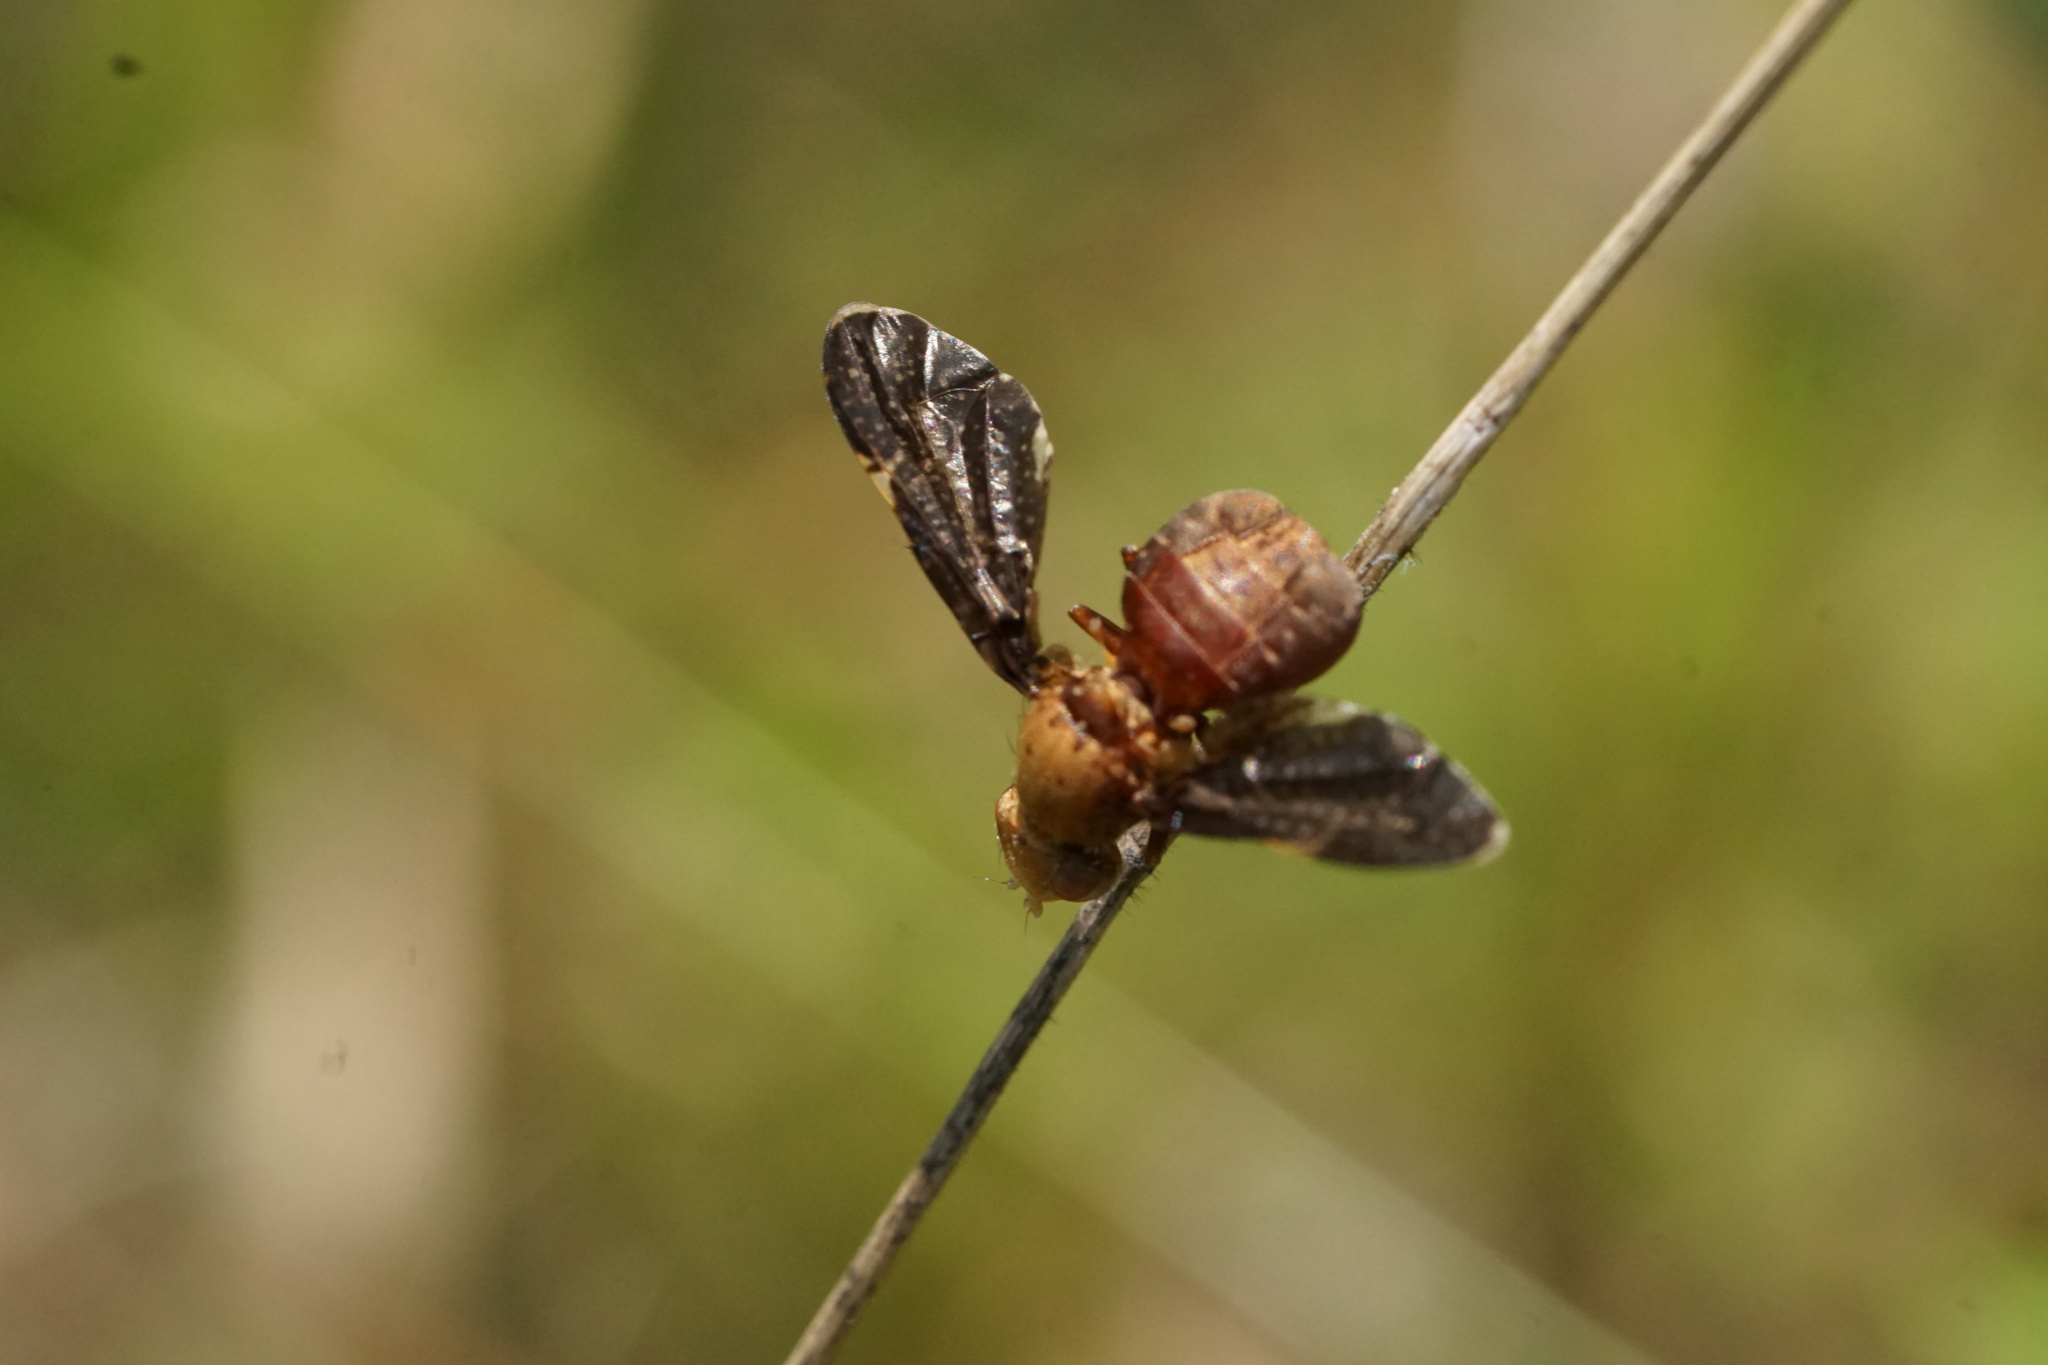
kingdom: Animalia
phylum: Arthropoda
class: Insecta
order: Diptera
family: Tephritidae
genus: Eurosta
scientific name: Eurosta comma
